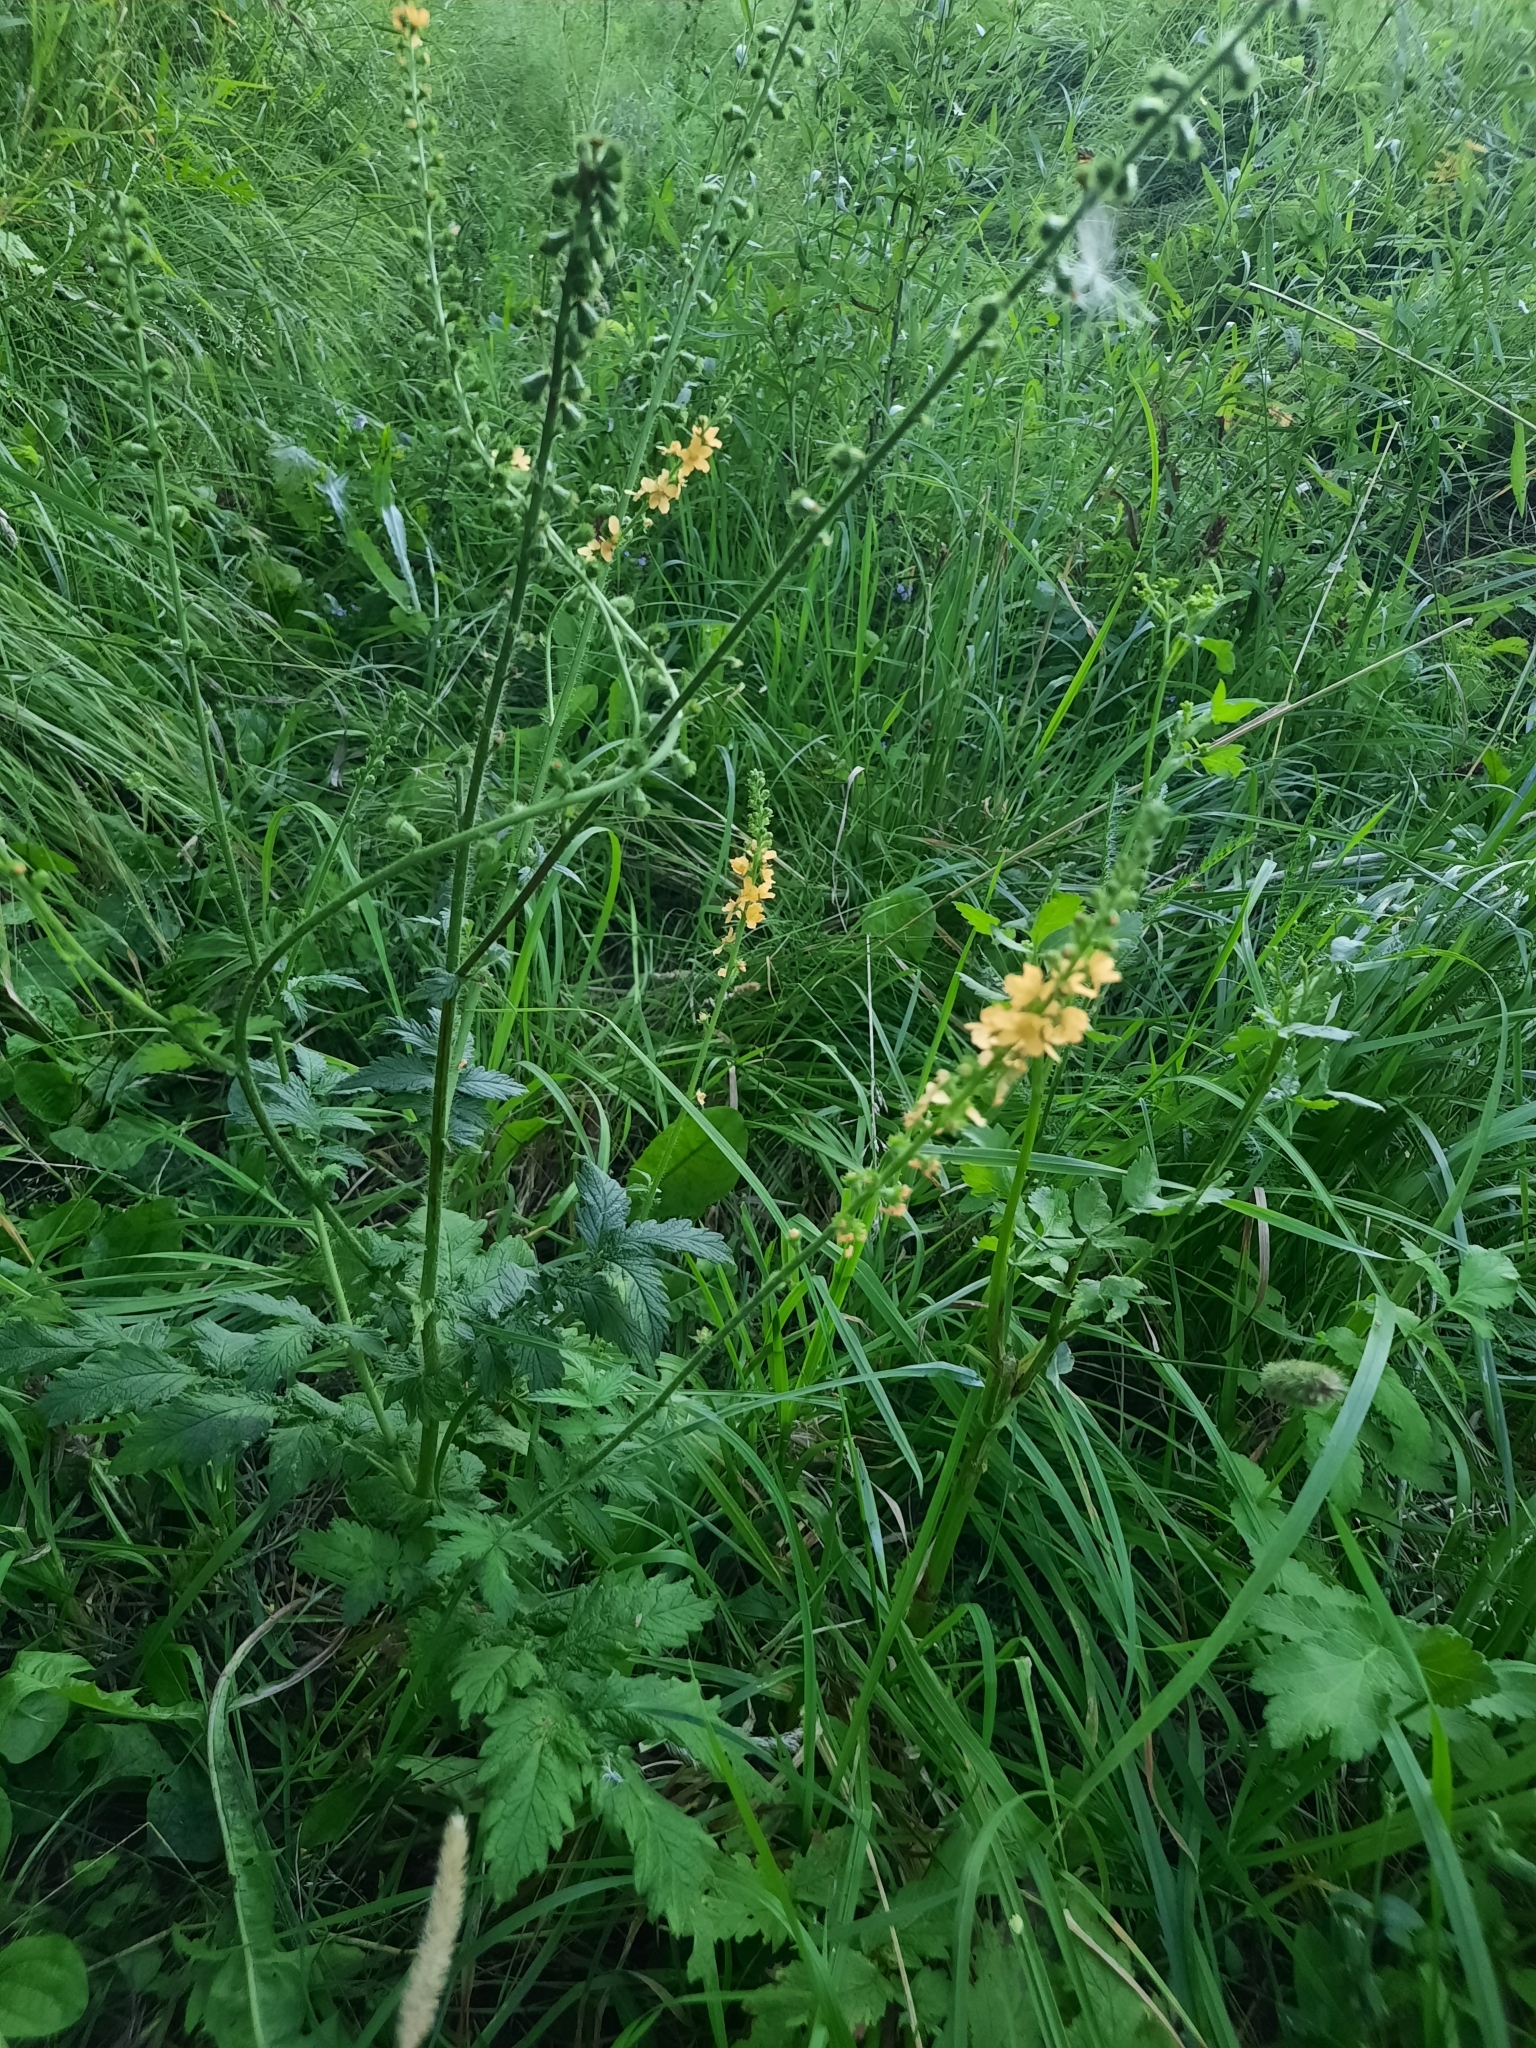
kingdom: Plantae
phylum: Tracheophyta
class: Magnoliopsida
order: Rosales
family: Rosaceae
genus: Agrimonia
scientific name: Agrimonia pilosa
